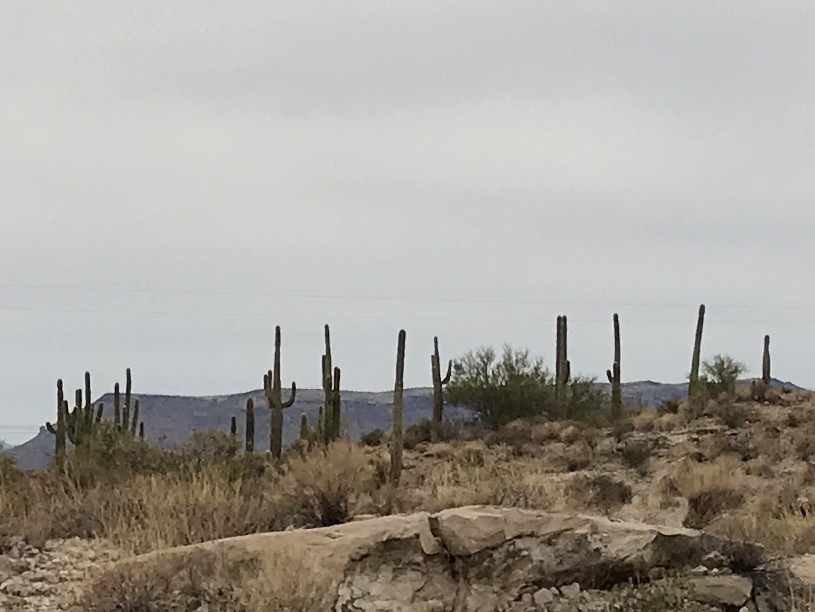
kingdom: Plantae
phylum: Tracheophyta
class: Magnoliopsida
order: Caryophyllales
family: Cactaceae
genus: Carnegiea
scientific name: Carnegiea gigantea
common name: Saguaro
